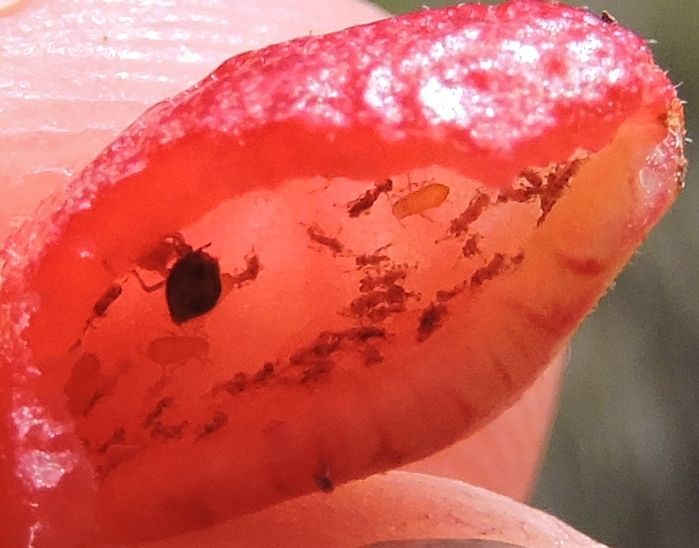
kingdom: Animalia
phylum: Arthropoda
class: Insecta
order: Hemiptera
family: Aphididae
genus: Tamalia
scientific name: Tamalia coweni
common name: Manzanita leafgall aphid
